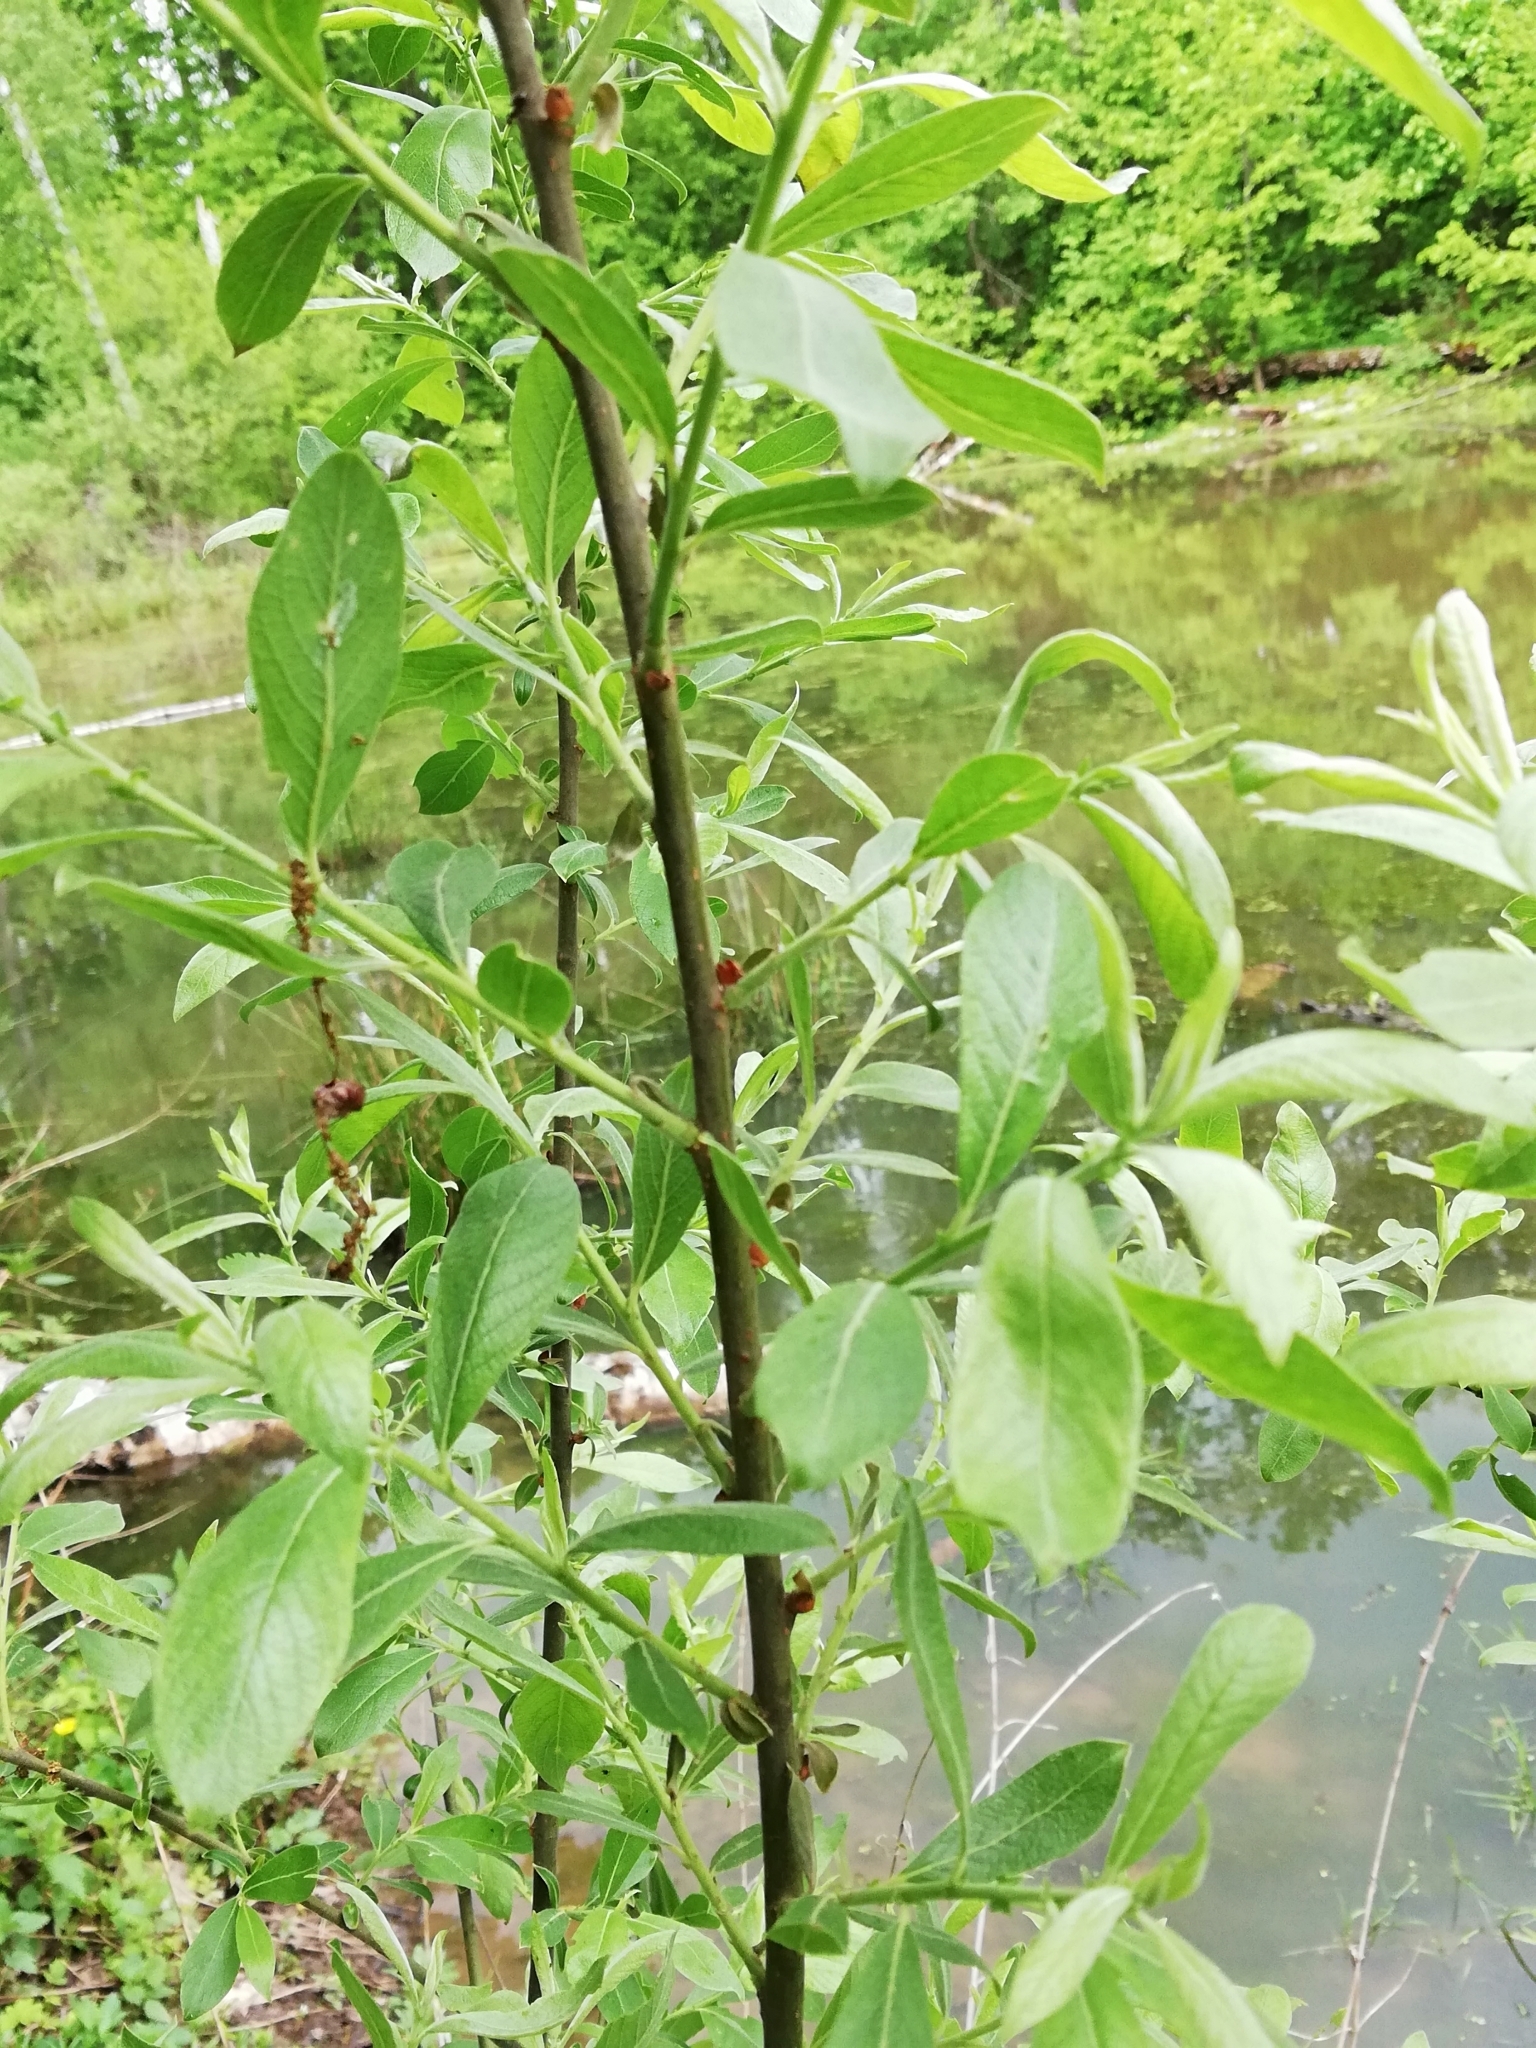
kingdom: Plantae
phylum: Tracheophyta
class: Magnoliopsida
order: Malpighiales
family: Salicaceae
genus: Salix
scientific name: Salix cinerea
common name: Common sallow
